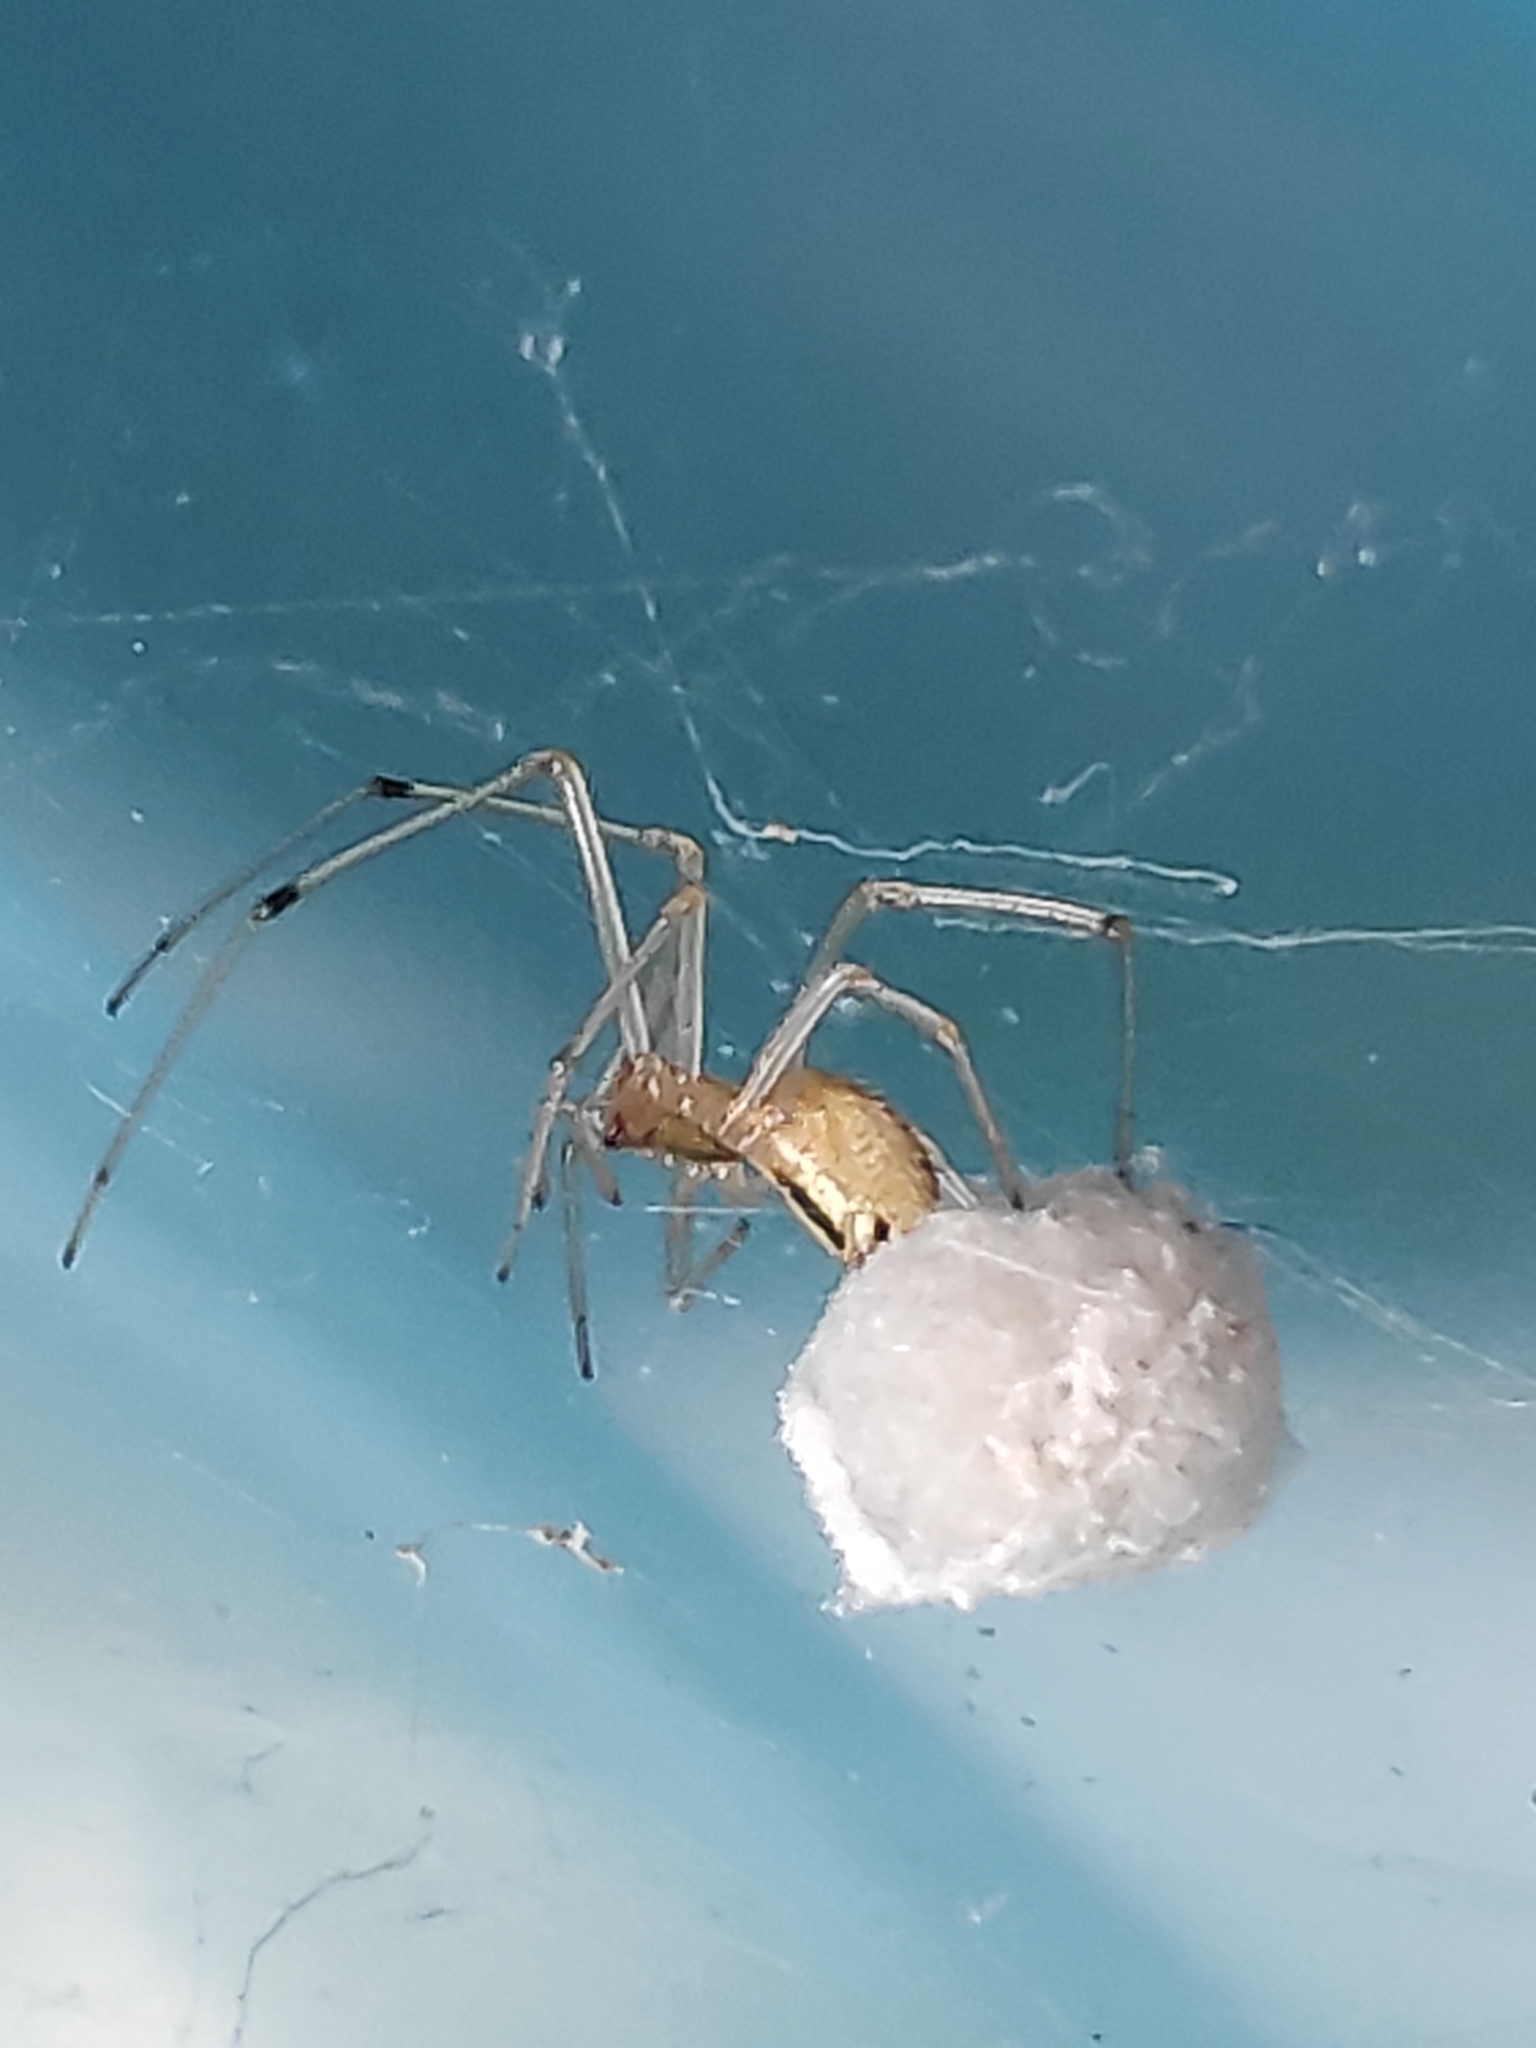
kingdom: Animalia
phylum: Arthropoda
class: Arachnida
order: Araneae
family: Theridiidae
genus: Enoplognatha
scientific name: Enoplognatha ovata
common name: Common candy-striped spider
